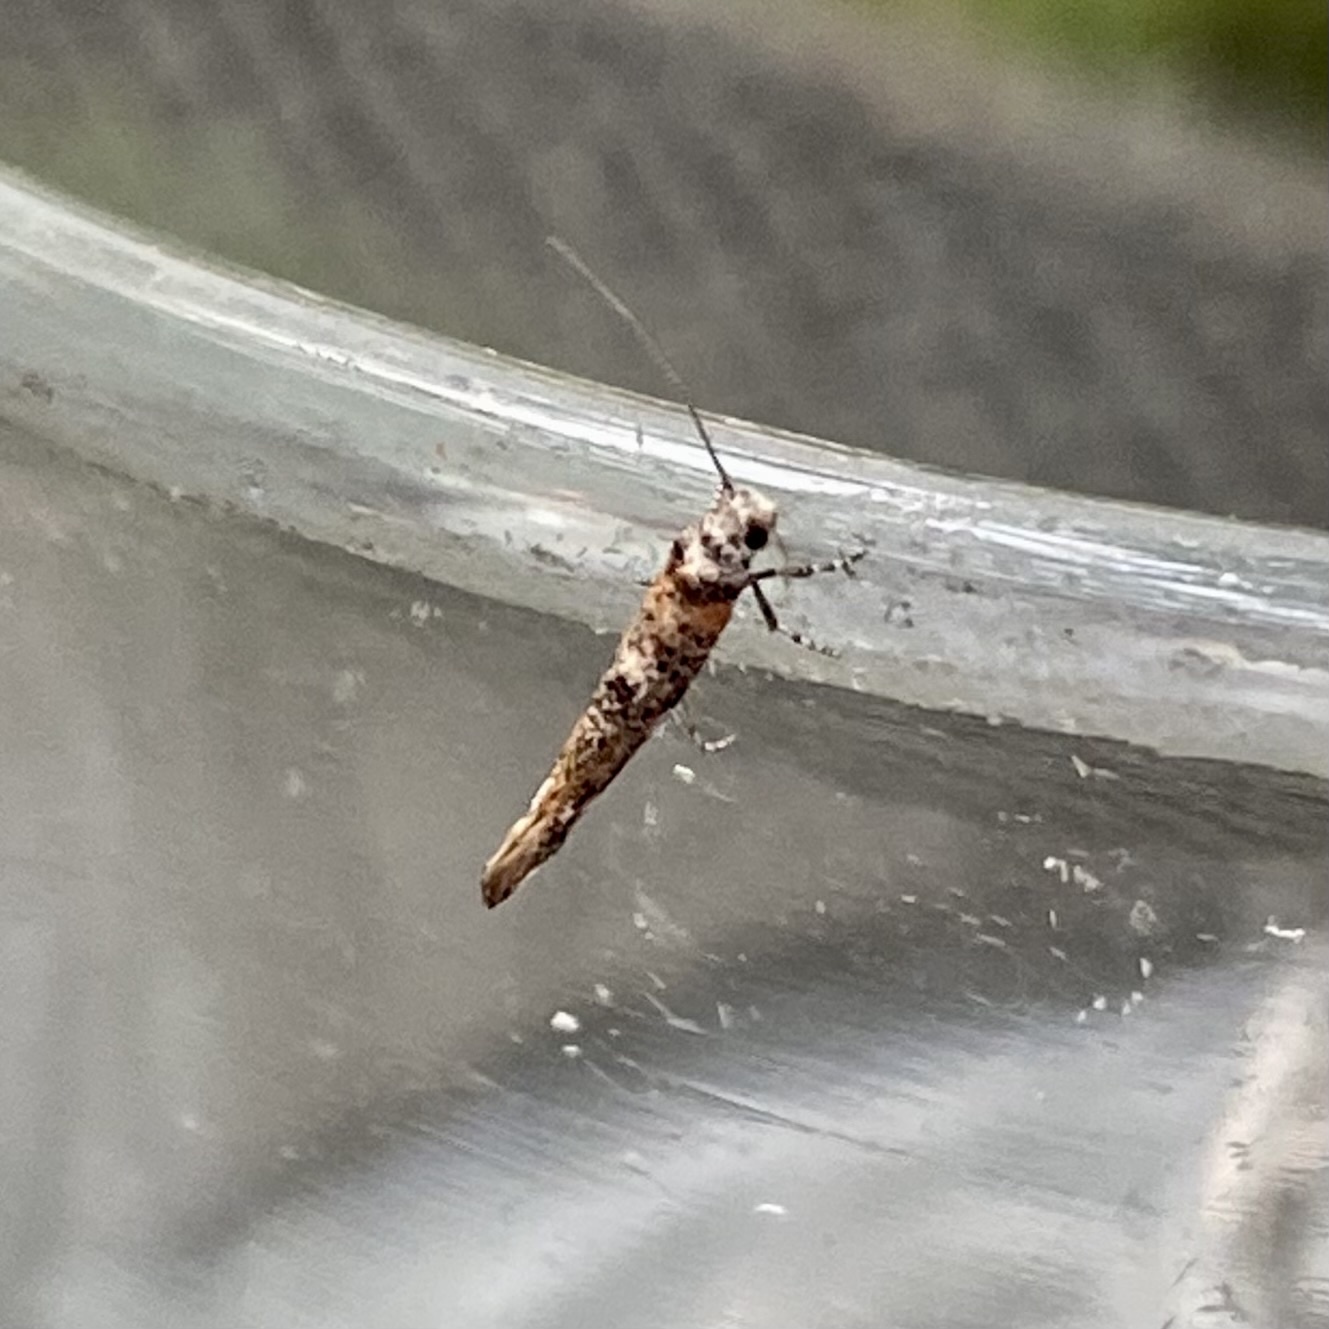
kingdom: Animalia
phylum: Arthropoda
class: Insecta
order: Lepidoptera
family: Yponomeutidae
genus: Zelleria
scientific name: Zelleria
